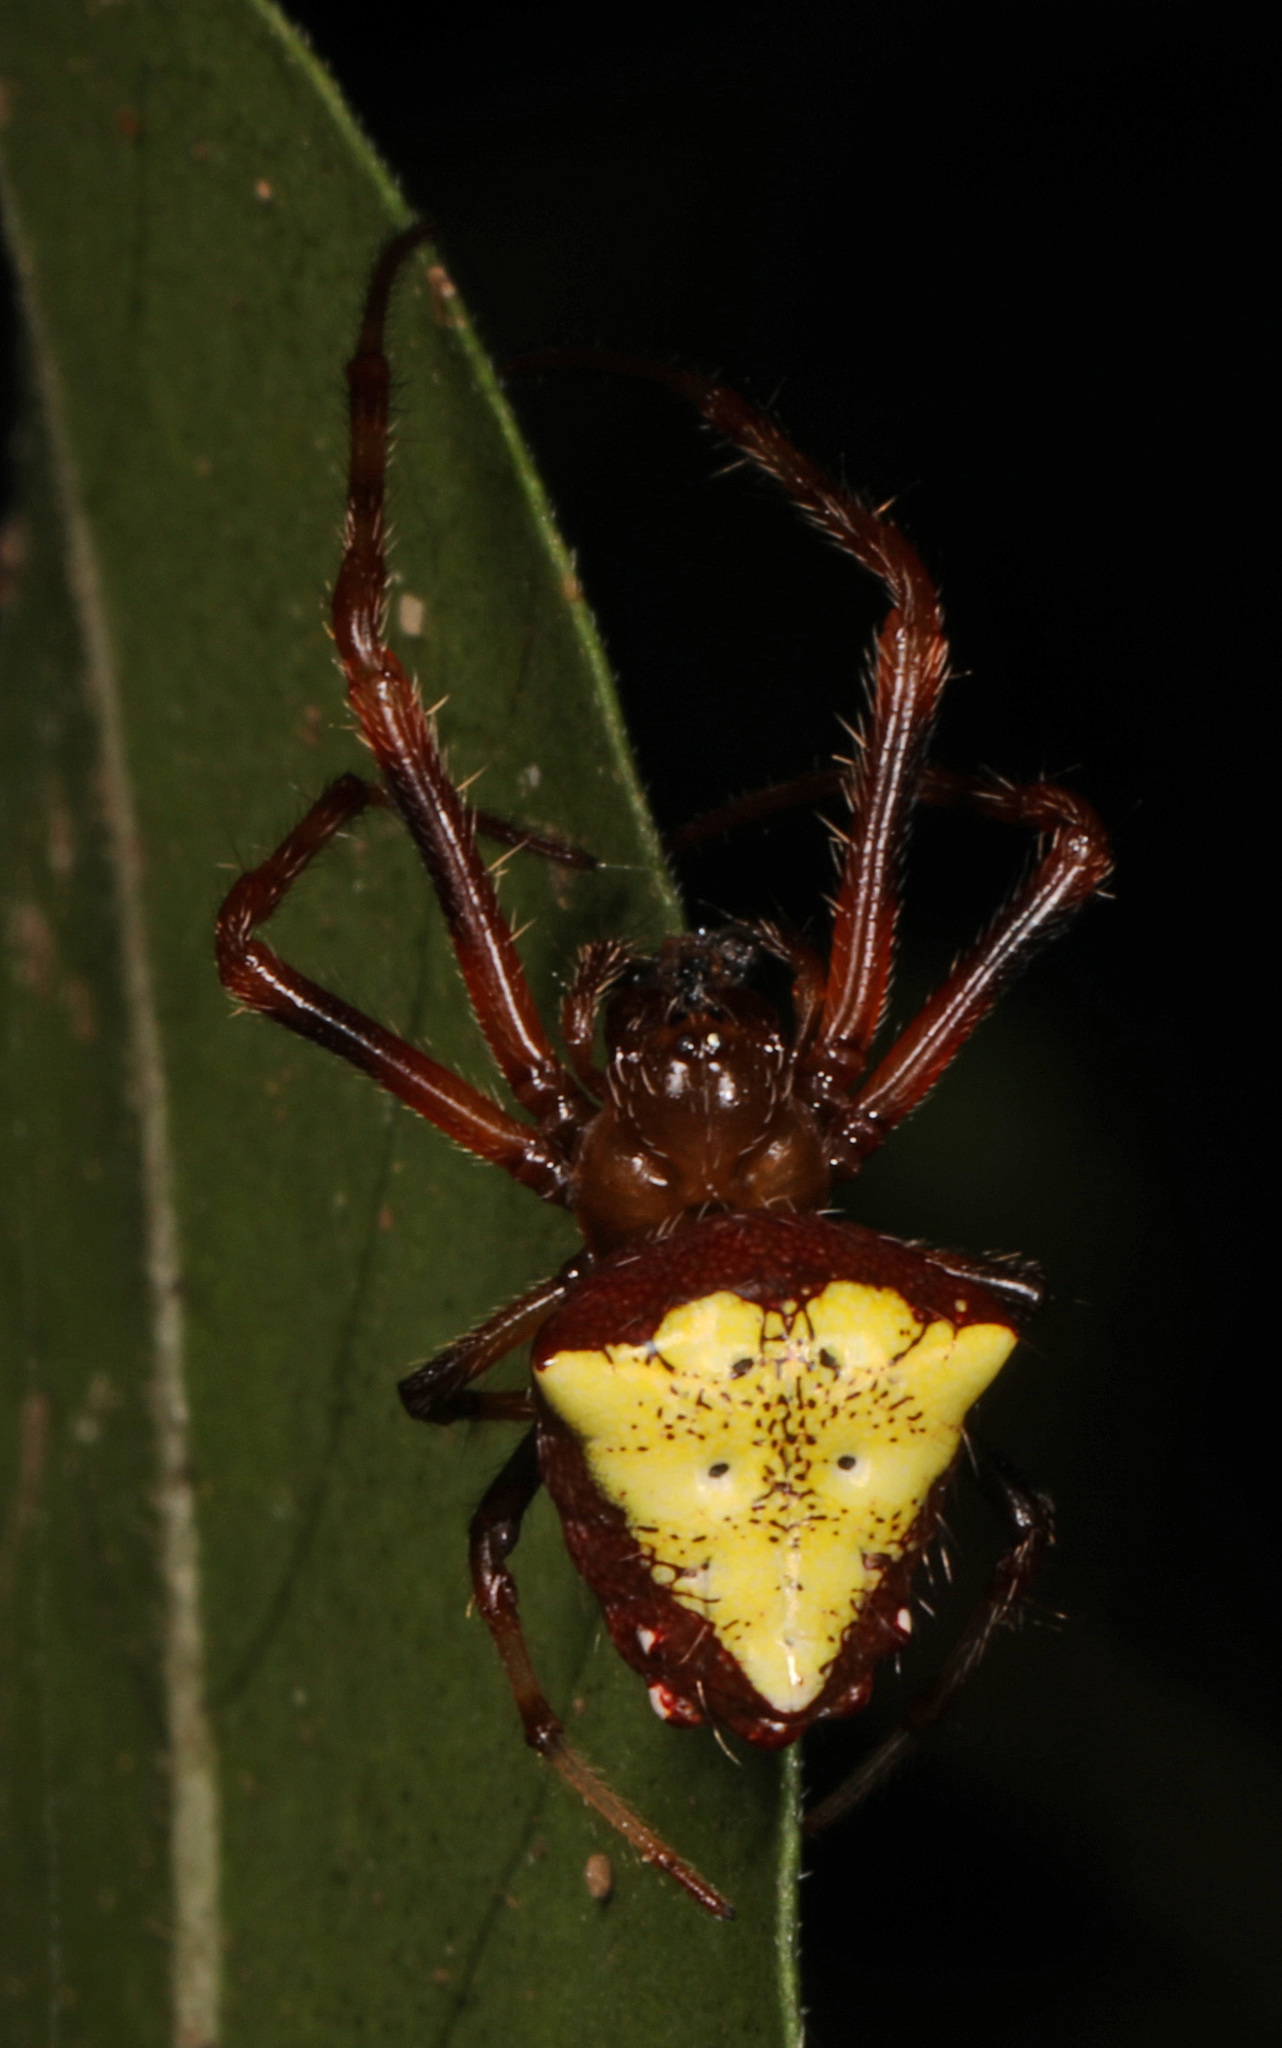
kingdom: Animalia
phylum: Arthropoda
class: Arachnida
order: Araneae
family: Araneidae
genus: Verrucosa
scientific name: Verrucosa arenata
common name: Orb weavers
